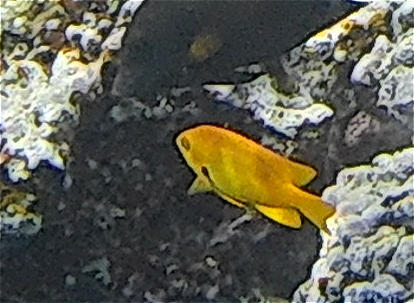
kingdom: Animalia
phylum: Chordata
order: Perciformes
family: Pomacentridae
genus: Pomacentrus
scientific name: Pomacentrus sulfureus
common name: Sulfur damsel
